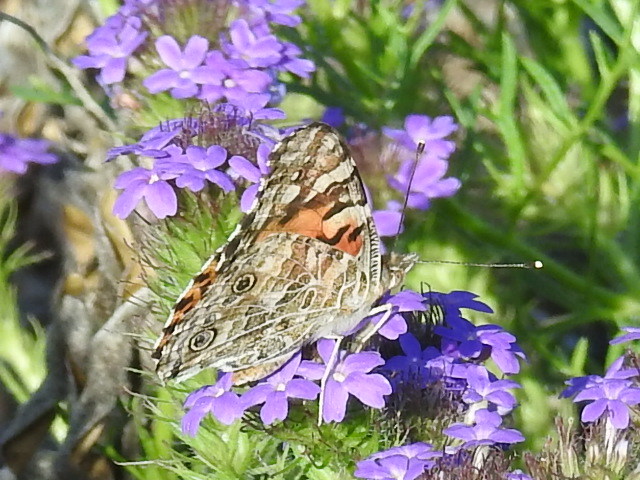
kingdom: Animalia
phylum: Arthropoda
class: Insecta
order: Lepidoptera
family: Nymphalidae
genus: Vanessa
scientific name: Vanessa cardui
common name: Painted lady
